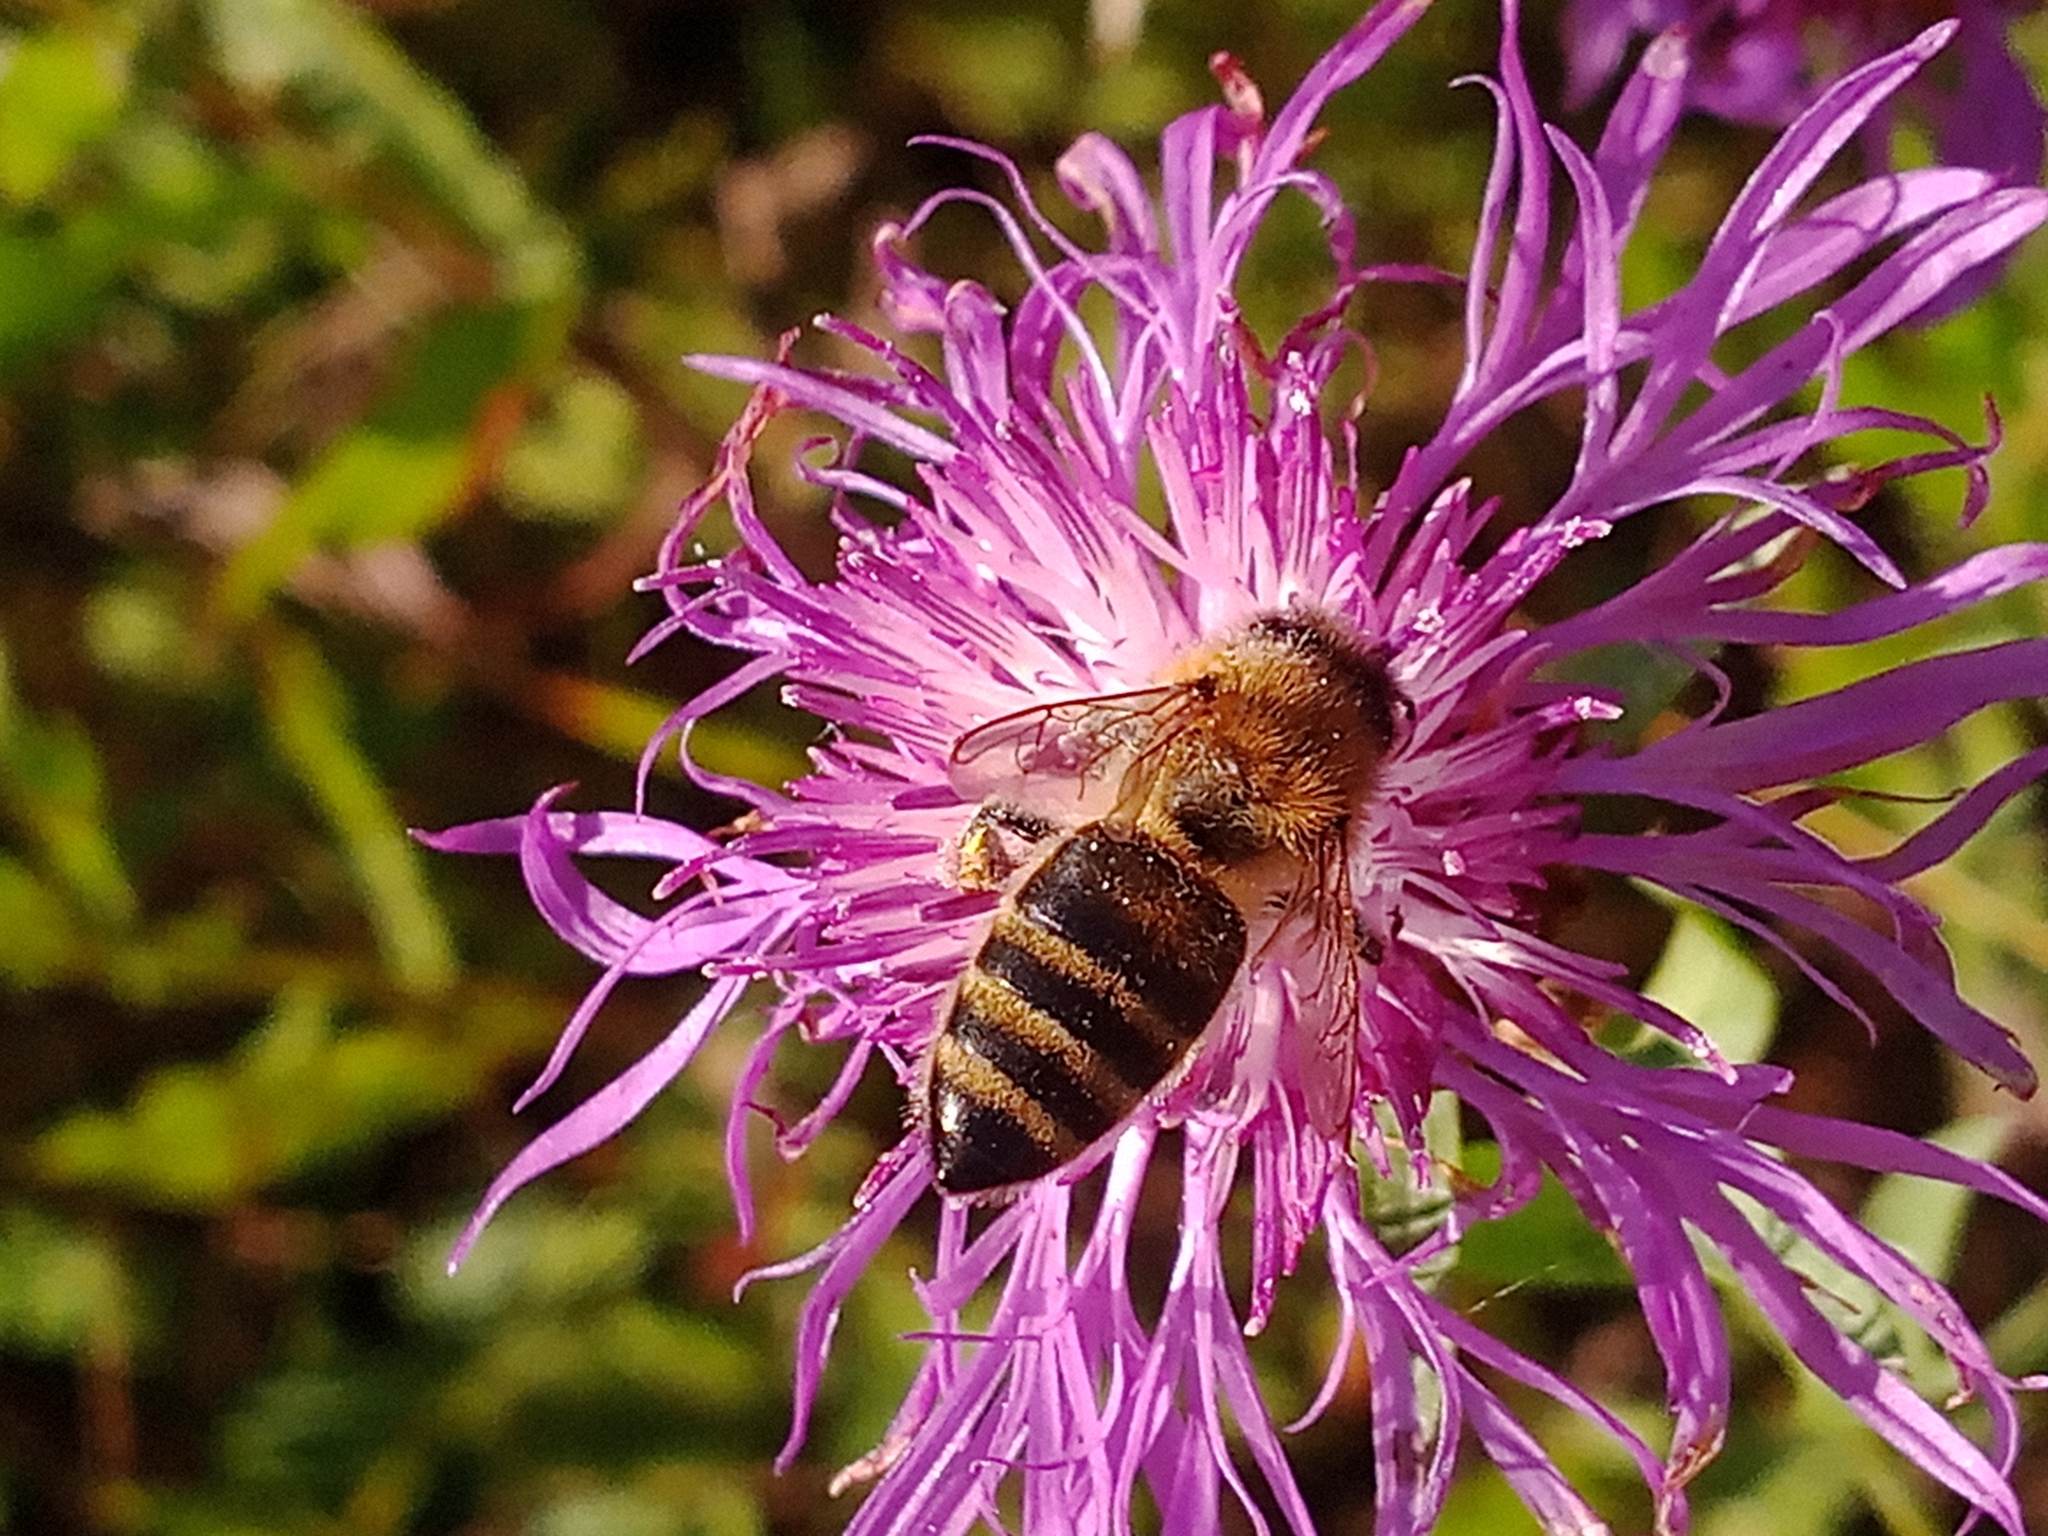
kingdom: Animalia
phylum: Arthropoda
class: Insecta
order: Hymenoptera
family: Apidae
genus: Apis
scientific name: Apis mellifera
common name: Honey bee
